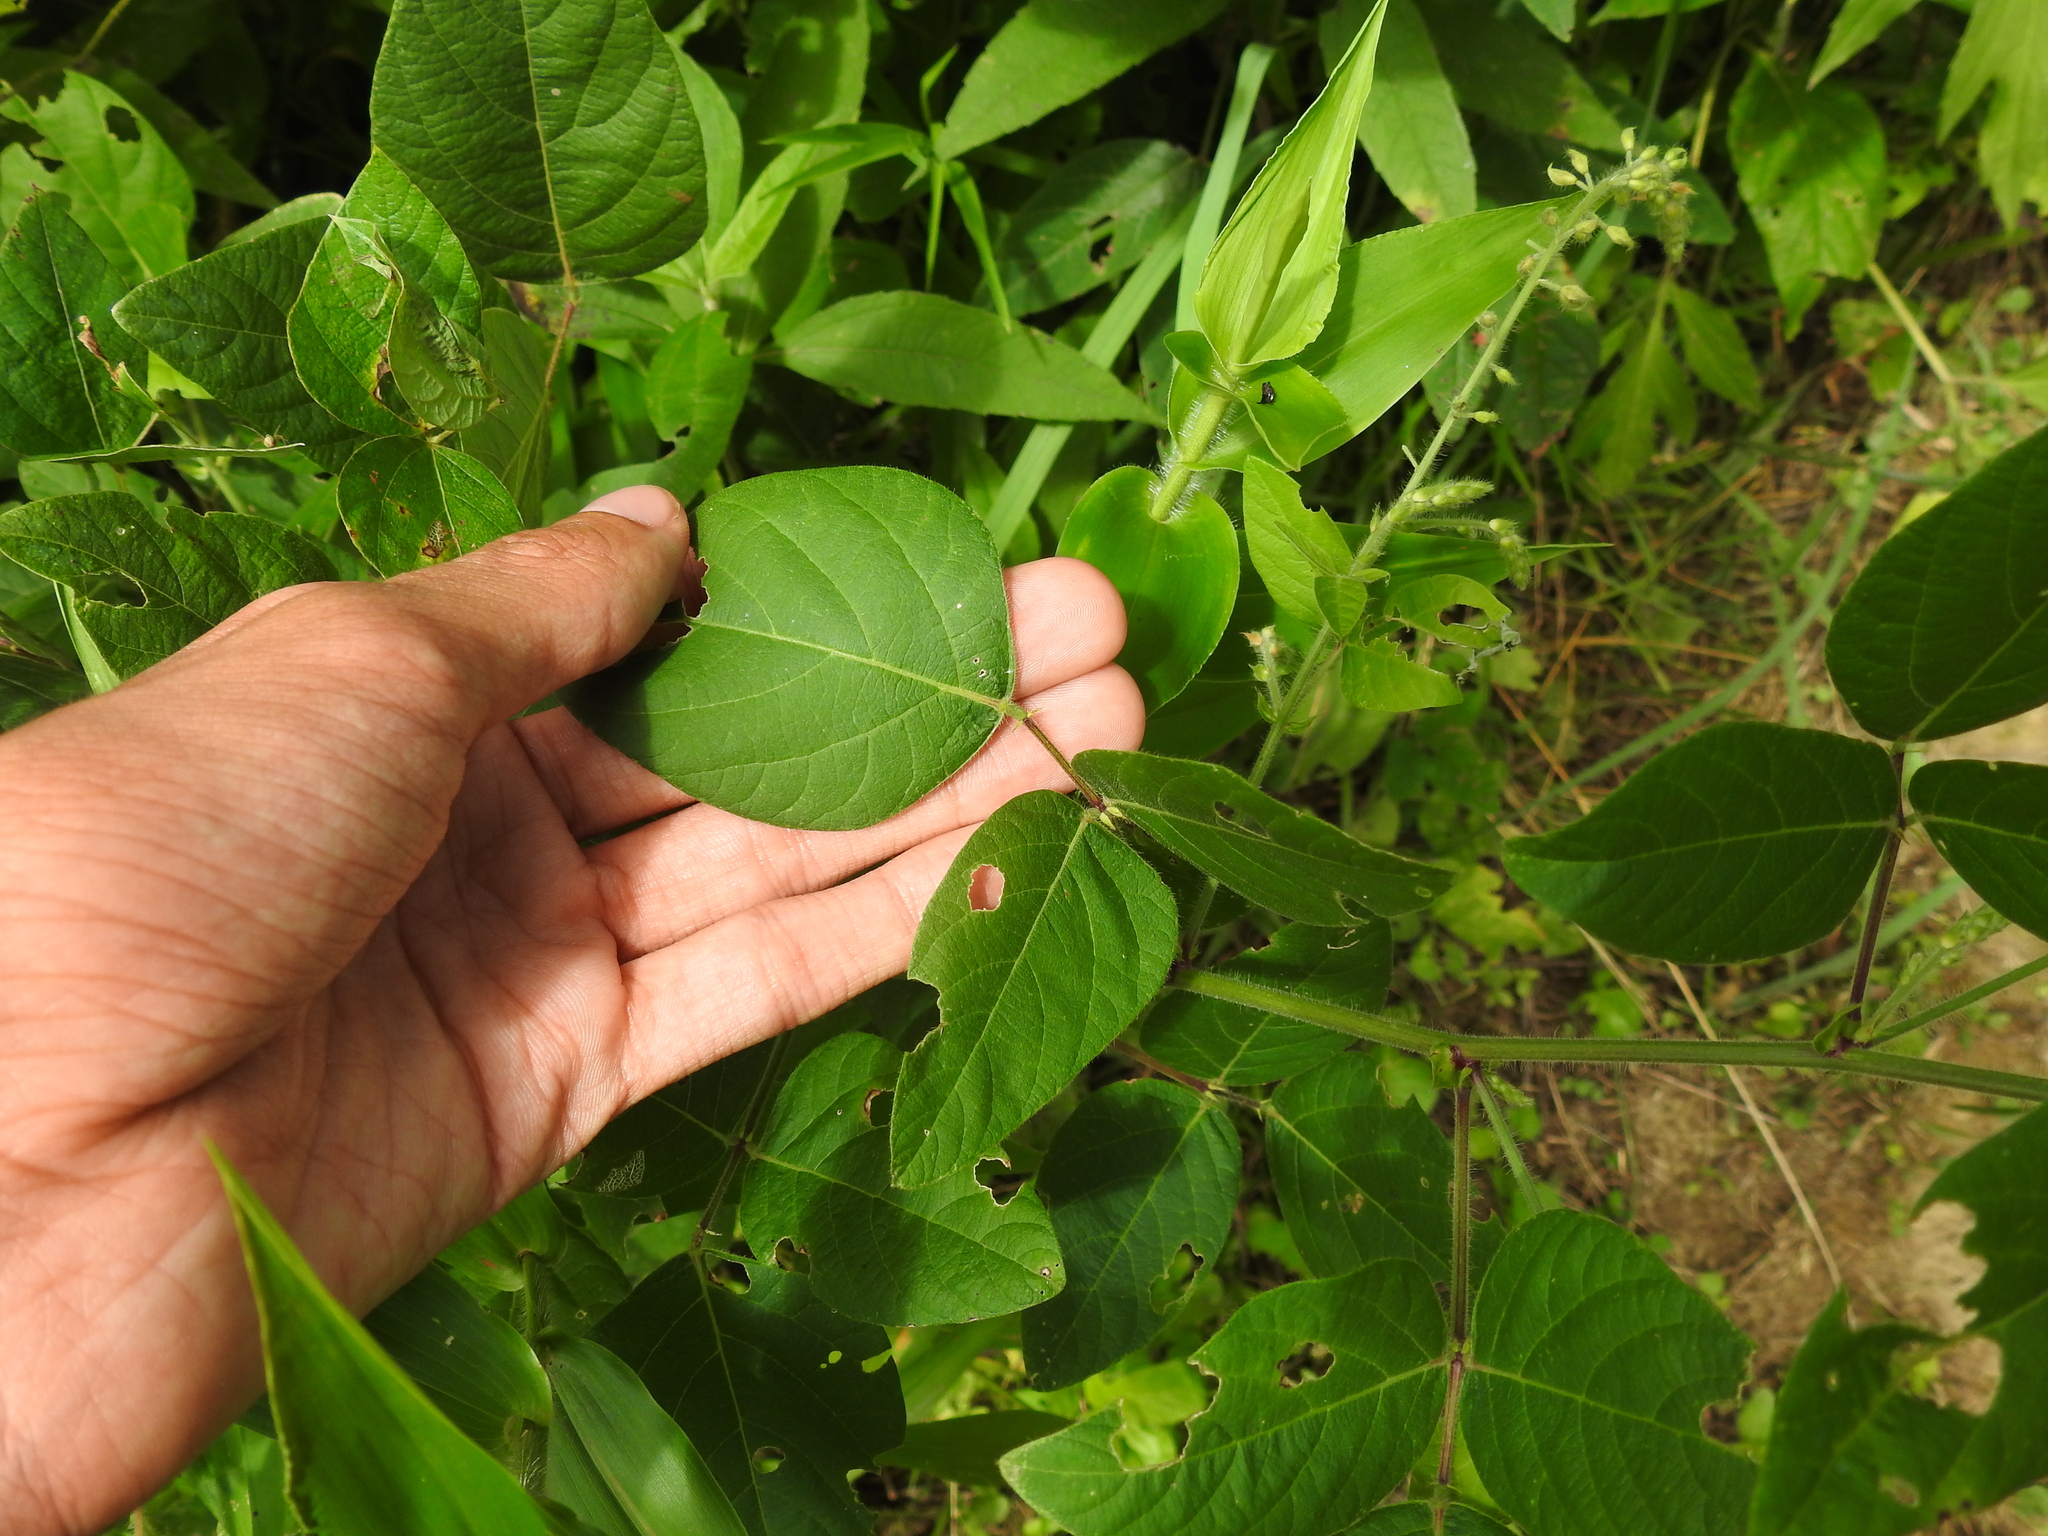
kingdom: Plantae
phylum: Tracheophyta
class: Magnoliopsida
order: Fabales
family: Fabaceae
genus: Desmodium
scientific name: Desmodium canescens
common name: Hoary tick-clover
